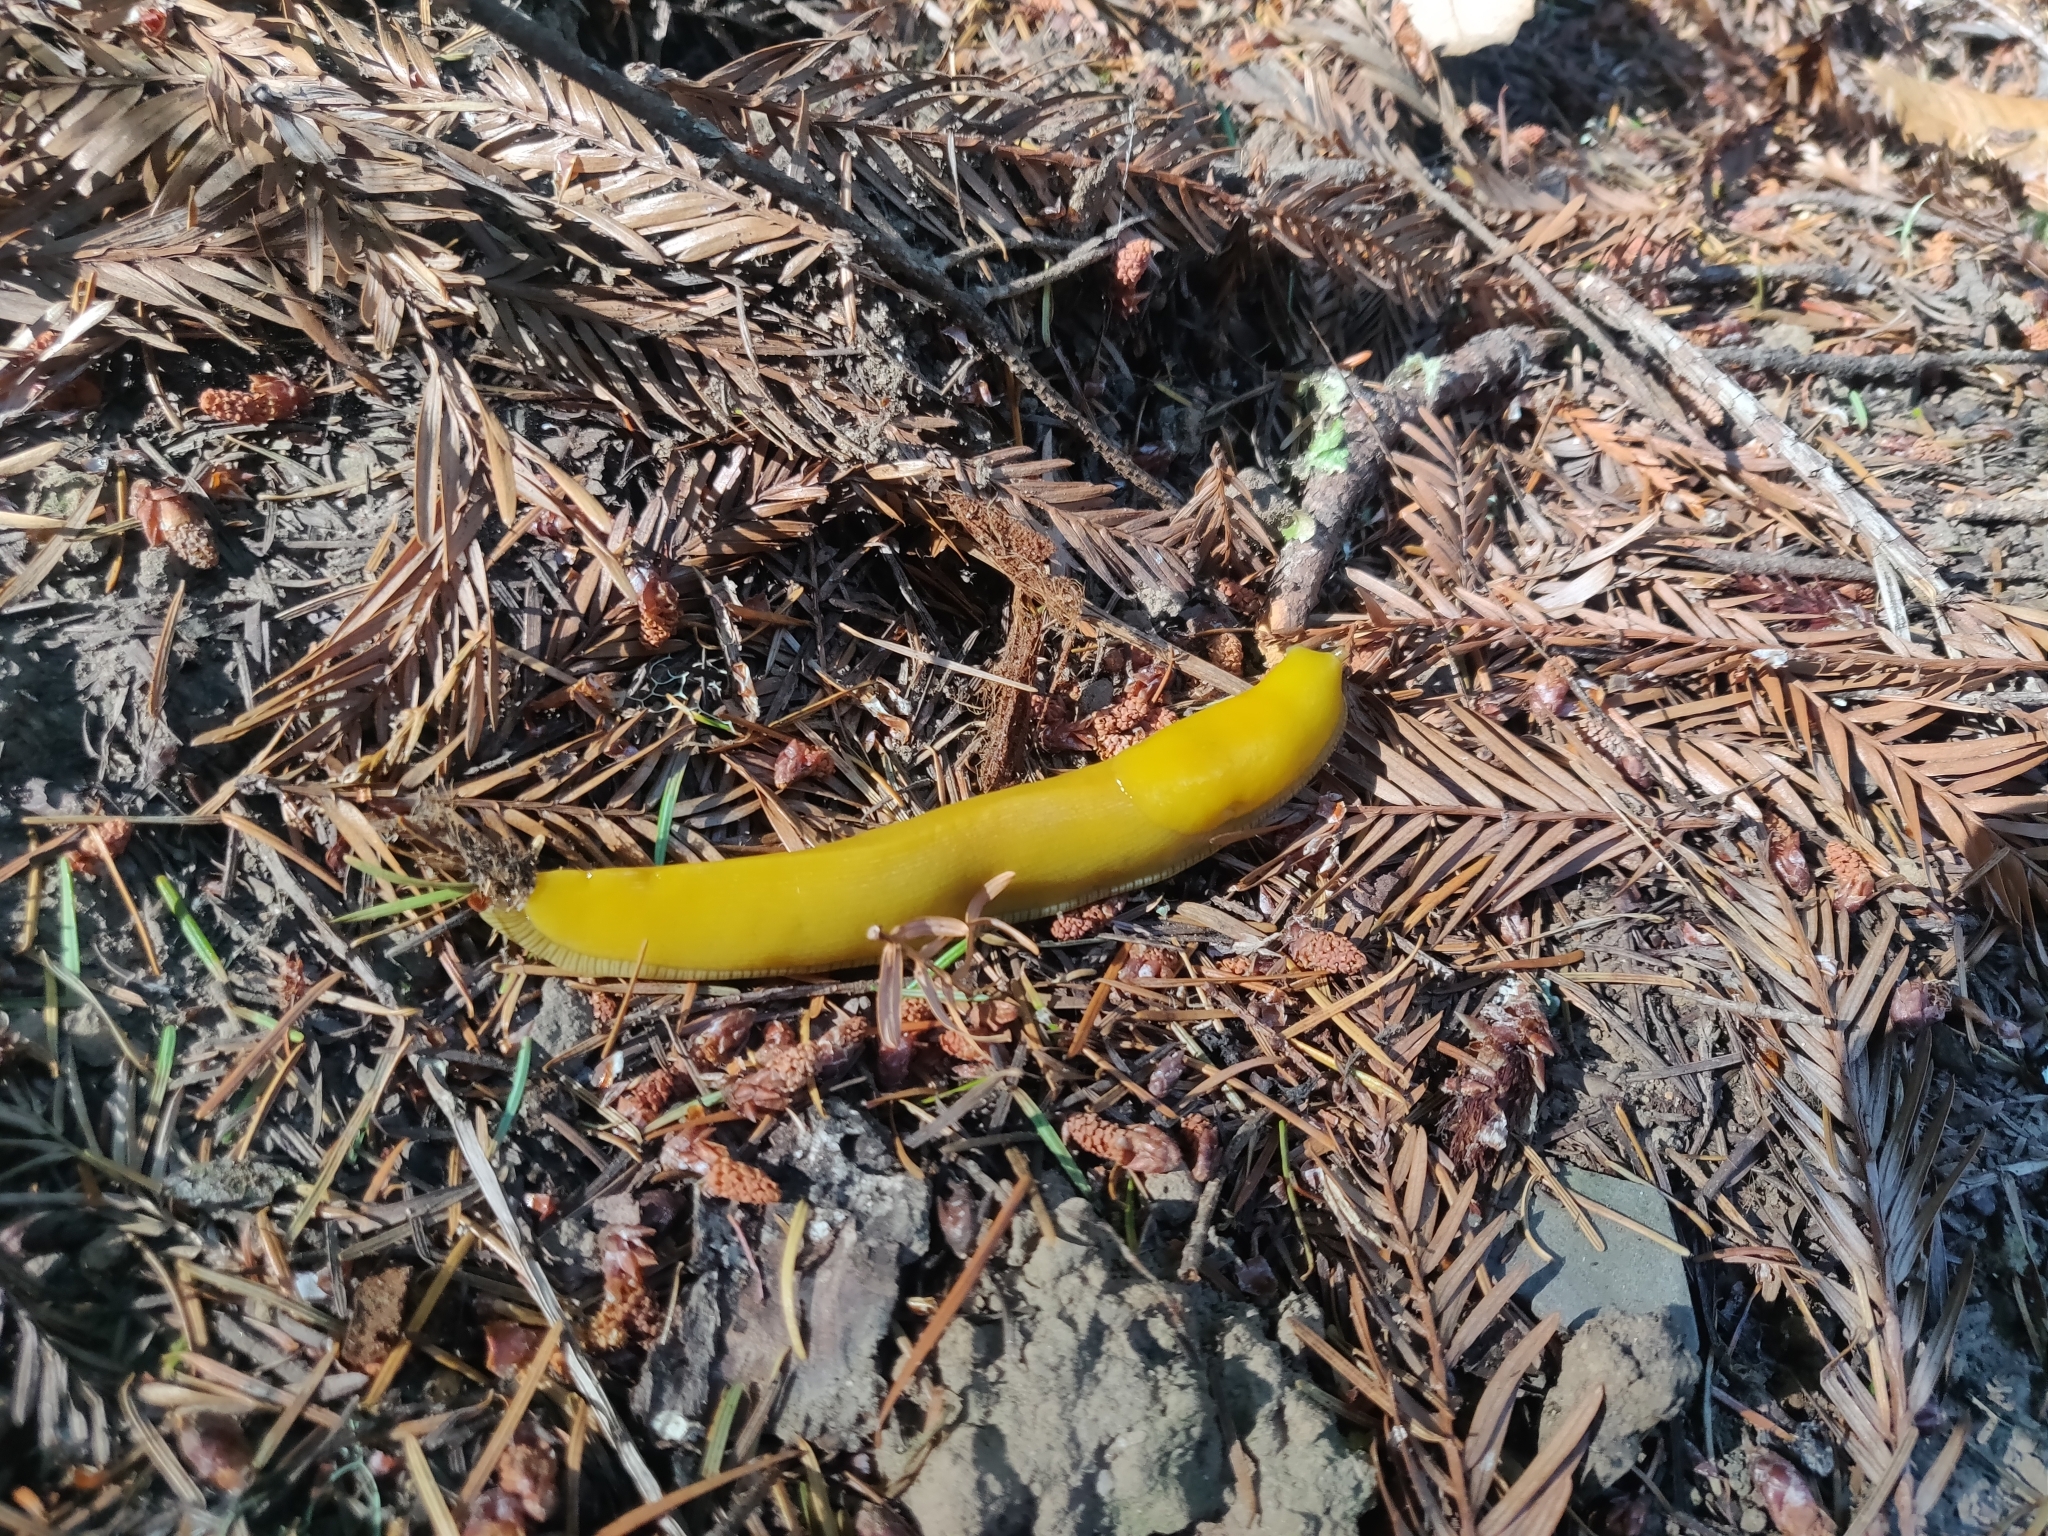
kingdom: Animalia
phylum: Mollusca
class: Gastropoda
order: Stylommatophora
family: Ariolimacidae
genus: Ariolimax
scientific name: Ariolimax californicus
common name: California banana slug
